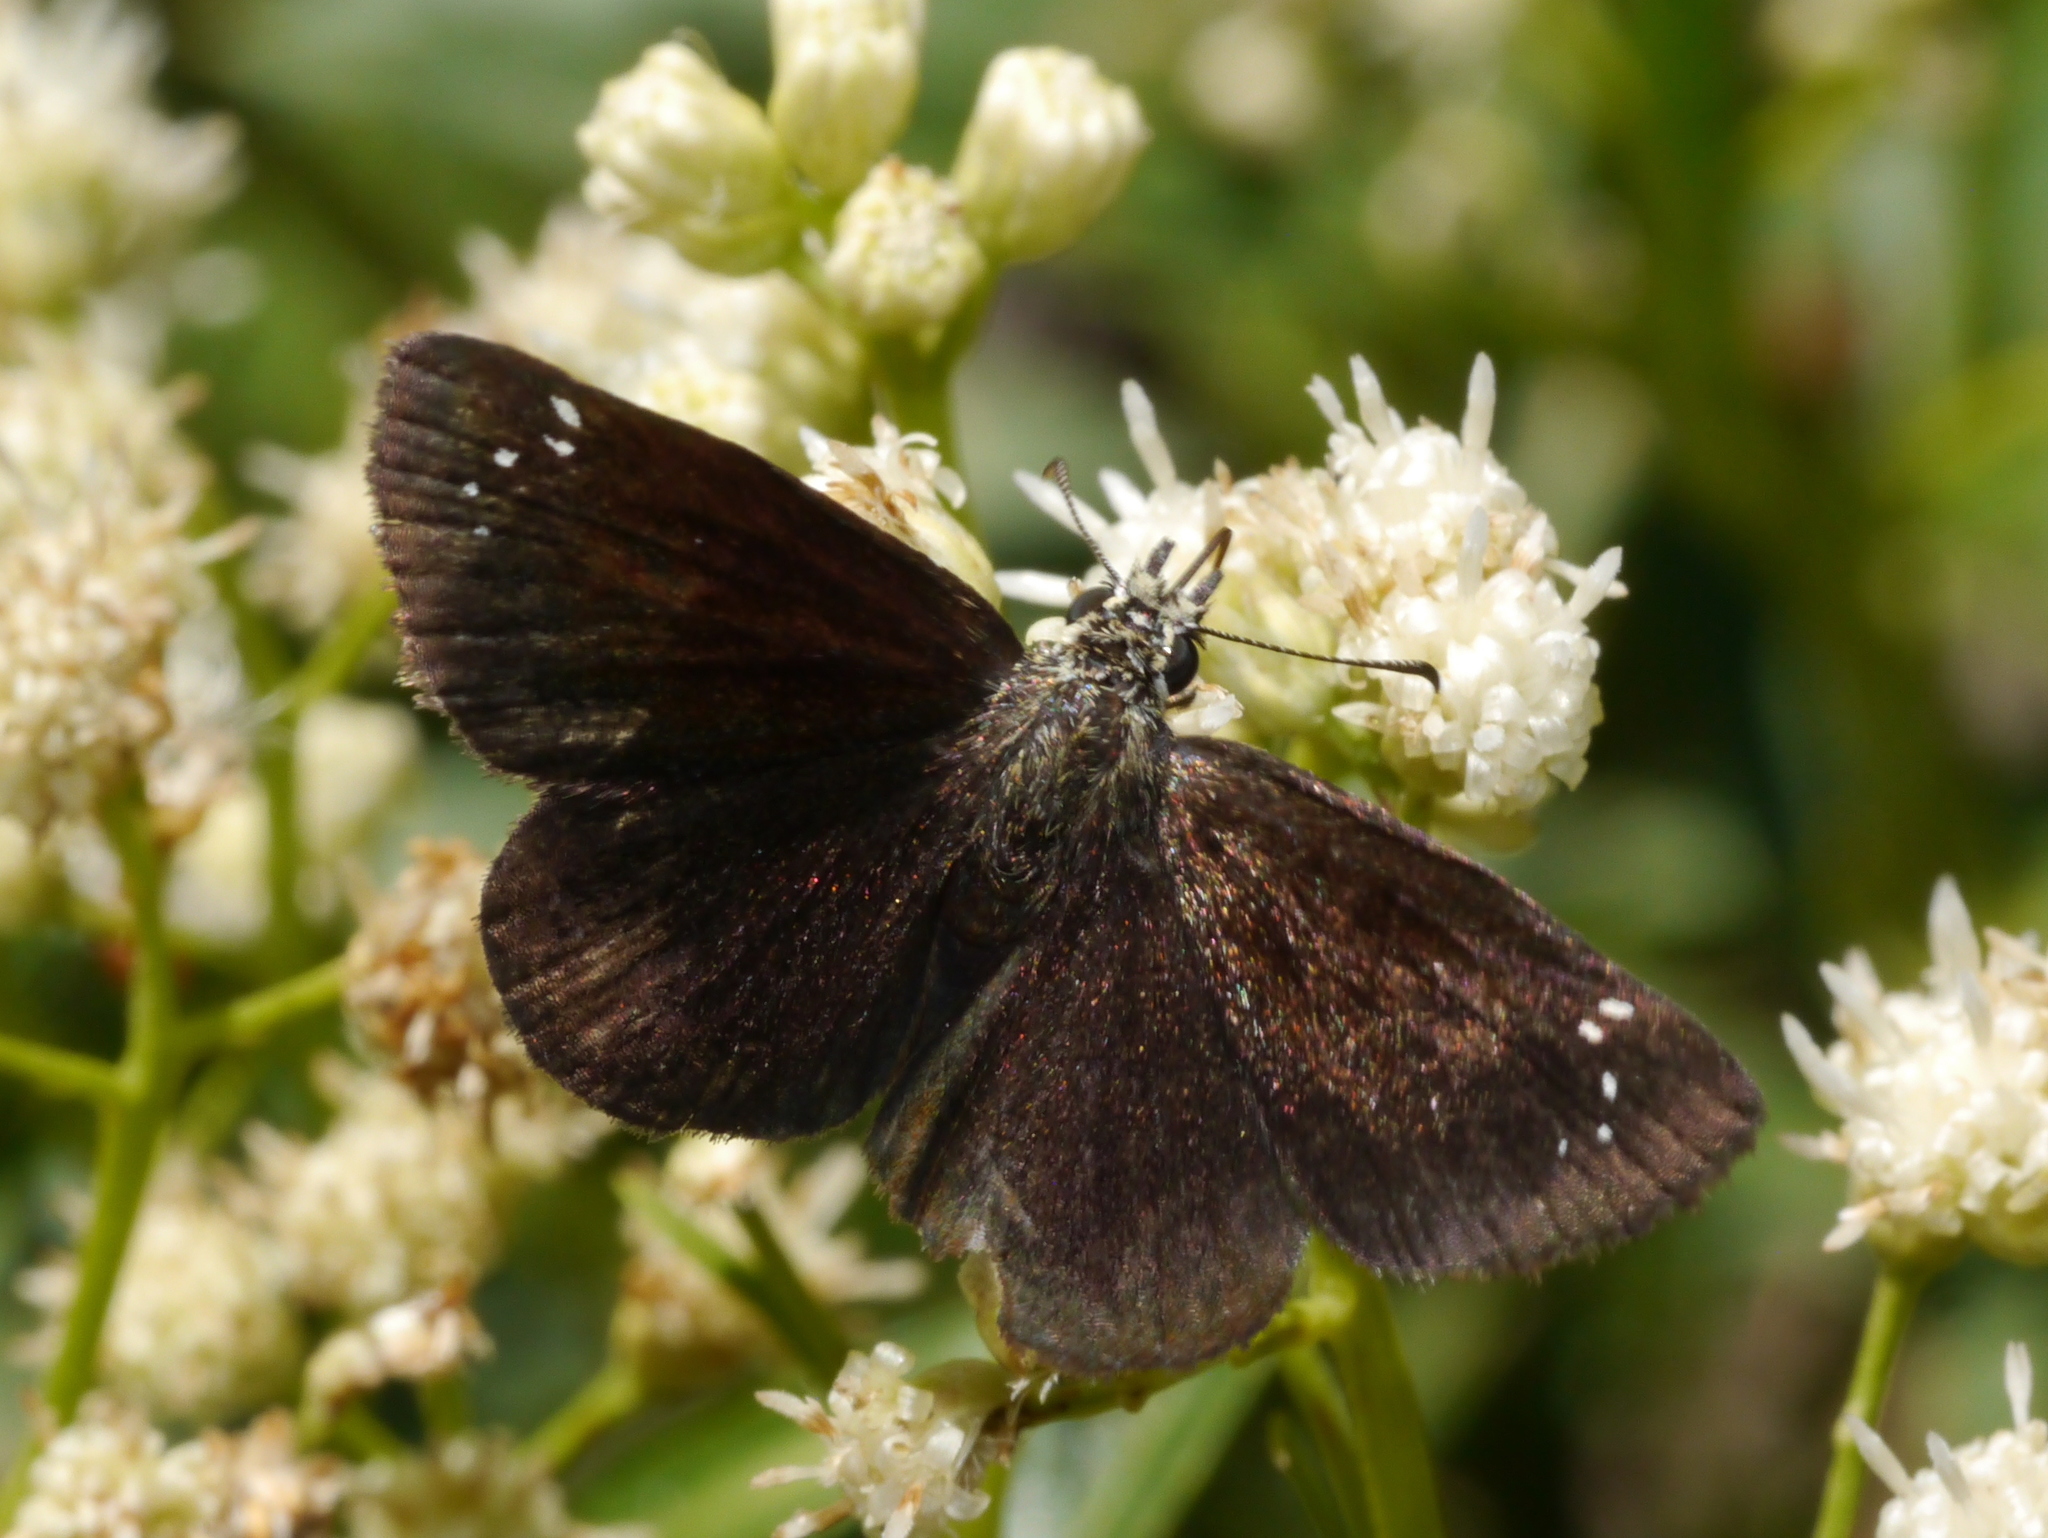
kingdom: Animalia
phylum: Arthropoda
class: Insecta
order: Lepidoptera
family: Hesperiidae
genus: Pholisora
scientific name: Pholisora catullus
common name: Common sootywing
